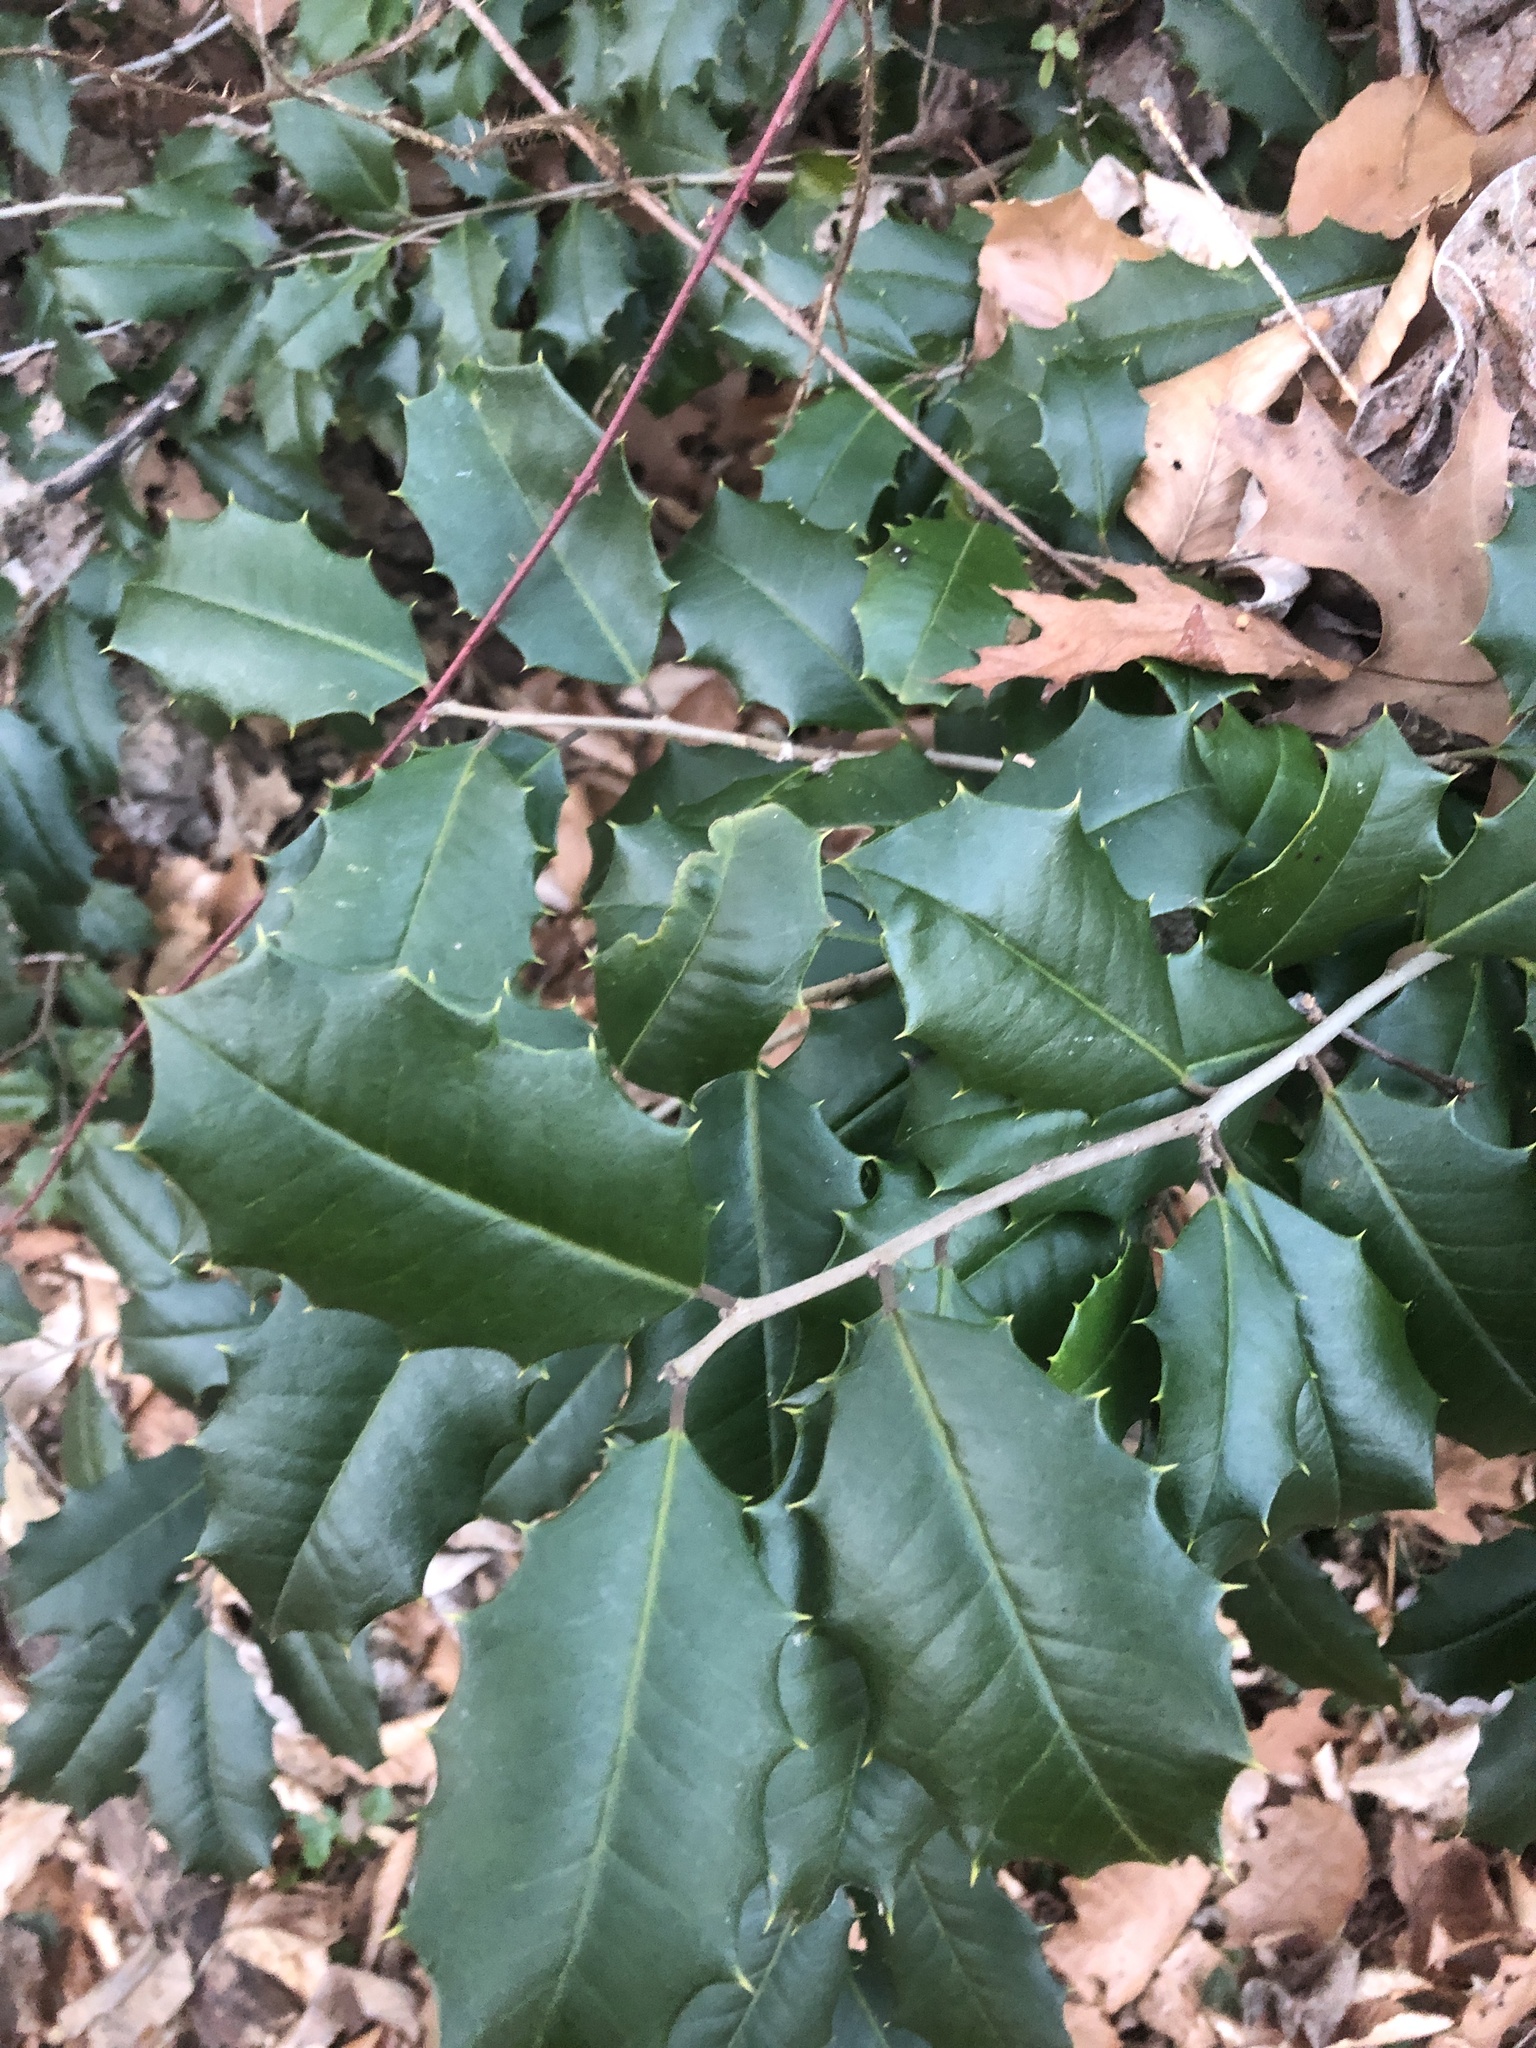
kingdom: Plantae
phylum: Tracheophyta
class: Magnoliopsida
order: Aquifoliales
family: Aquifoliaceae
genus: Ilex
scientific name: Ilex opaca
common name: American holly
